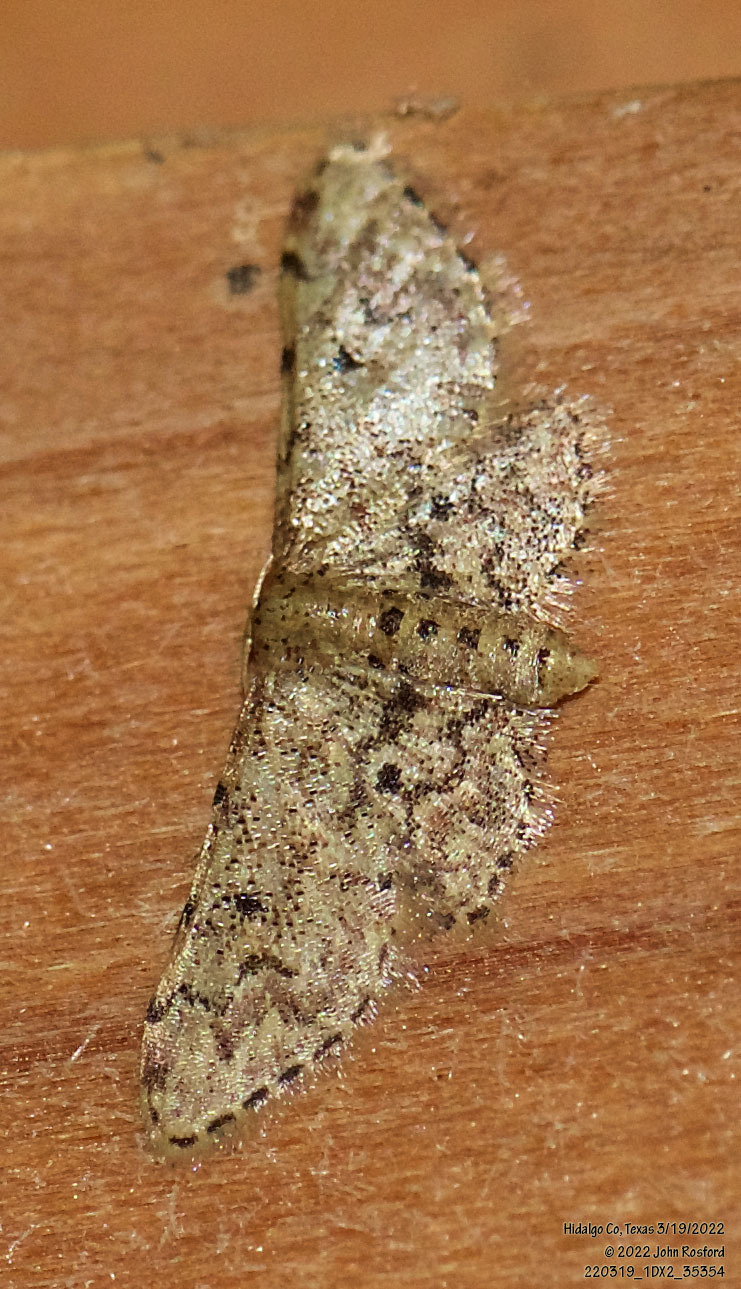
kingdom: Animalia
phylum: Arthropoda
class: Insecta
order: Lepidoptera
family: Geometridae
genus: Idaea
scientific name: Idaea pervertipennis
